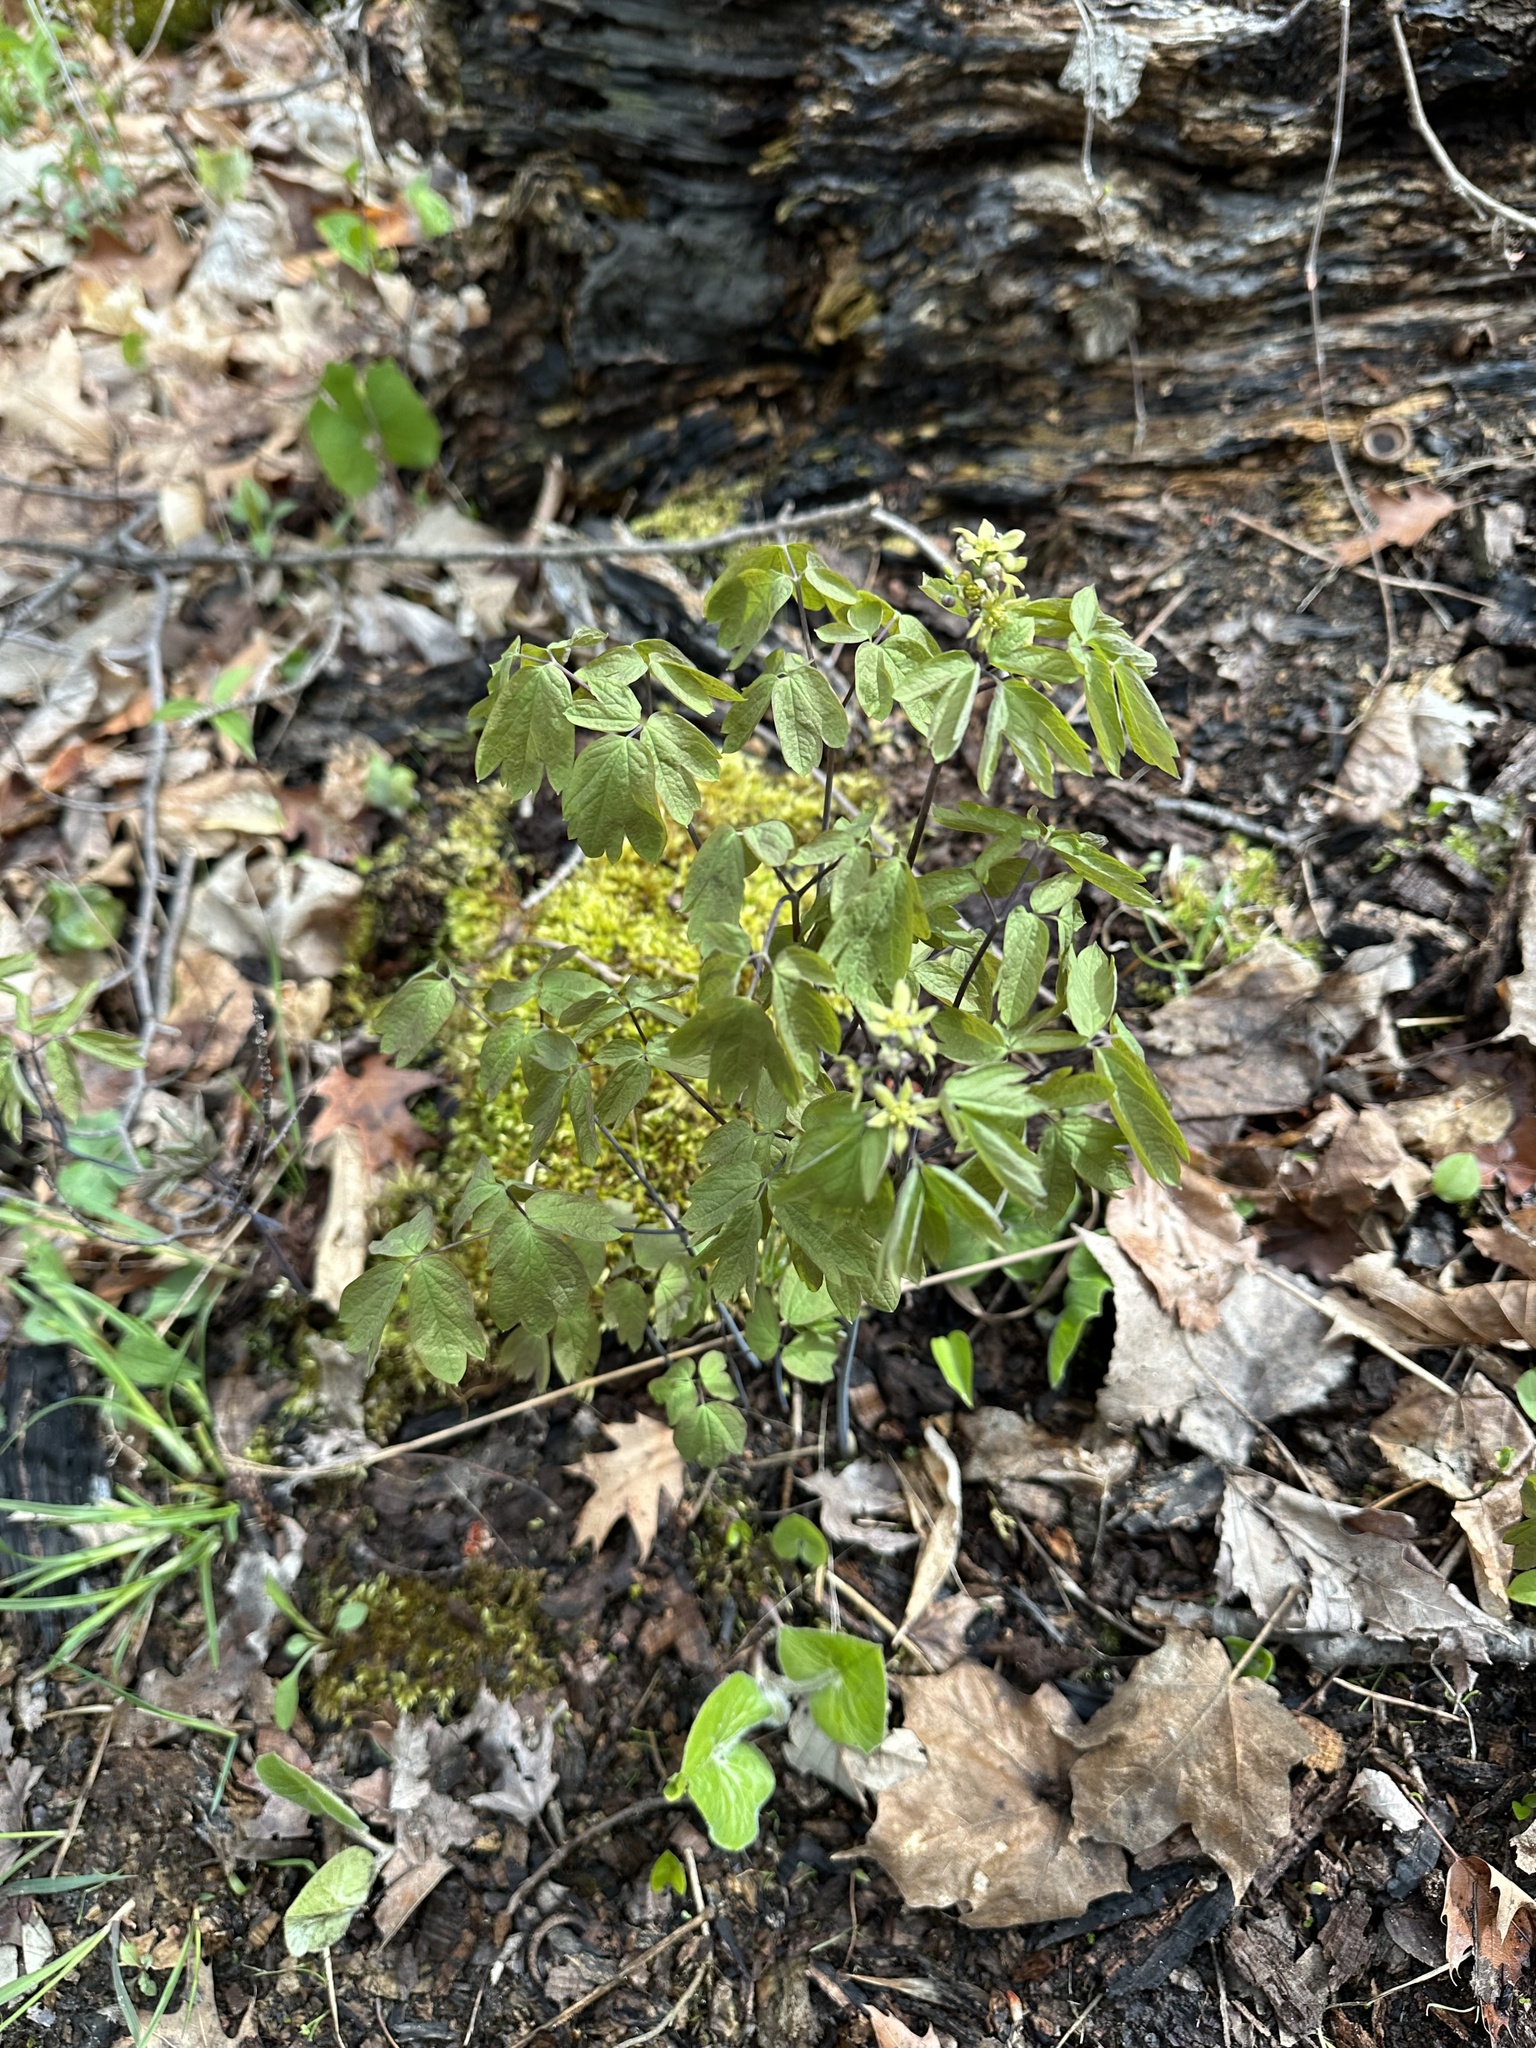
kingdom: Plantae
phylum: Tracheophyta
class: Magnoliopsida
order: Ranunculales
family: Berberidaceae
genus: Caulophyllum
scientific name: Caulophyllum thalictroides
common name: Blue cohosh
